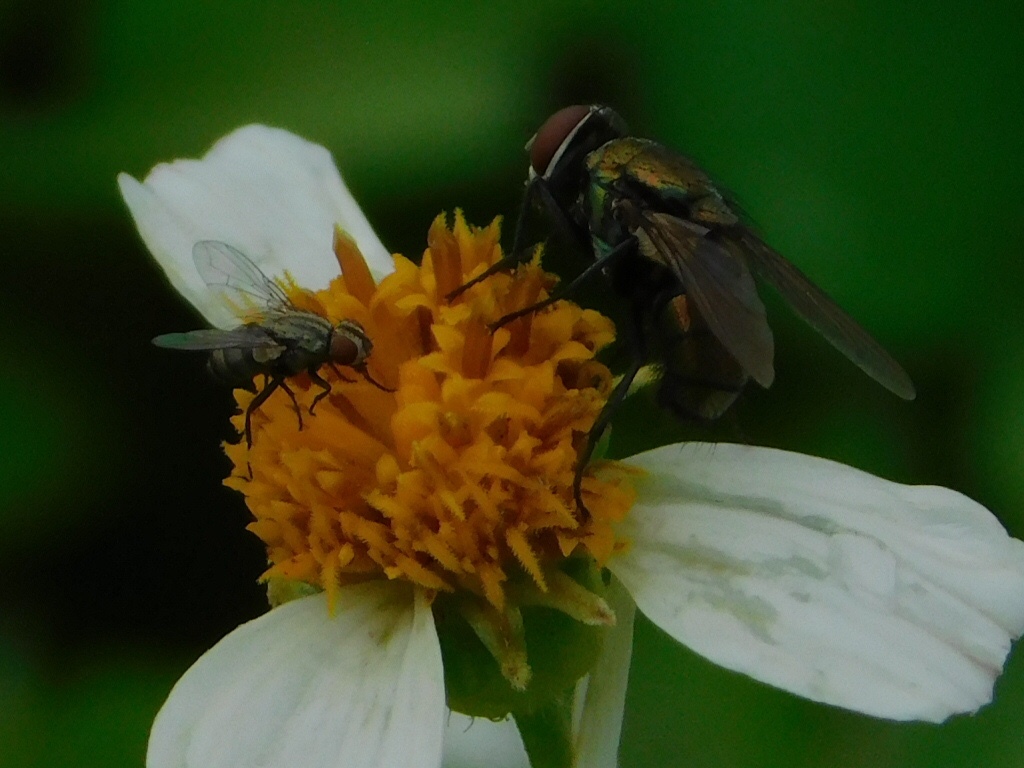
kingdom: Animalia
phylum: Arthropoda
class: Insecta
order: Diptera
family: Calliphoridae
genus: Lucilia
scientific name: Lucilia cuprina
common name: Sheep blow fly
